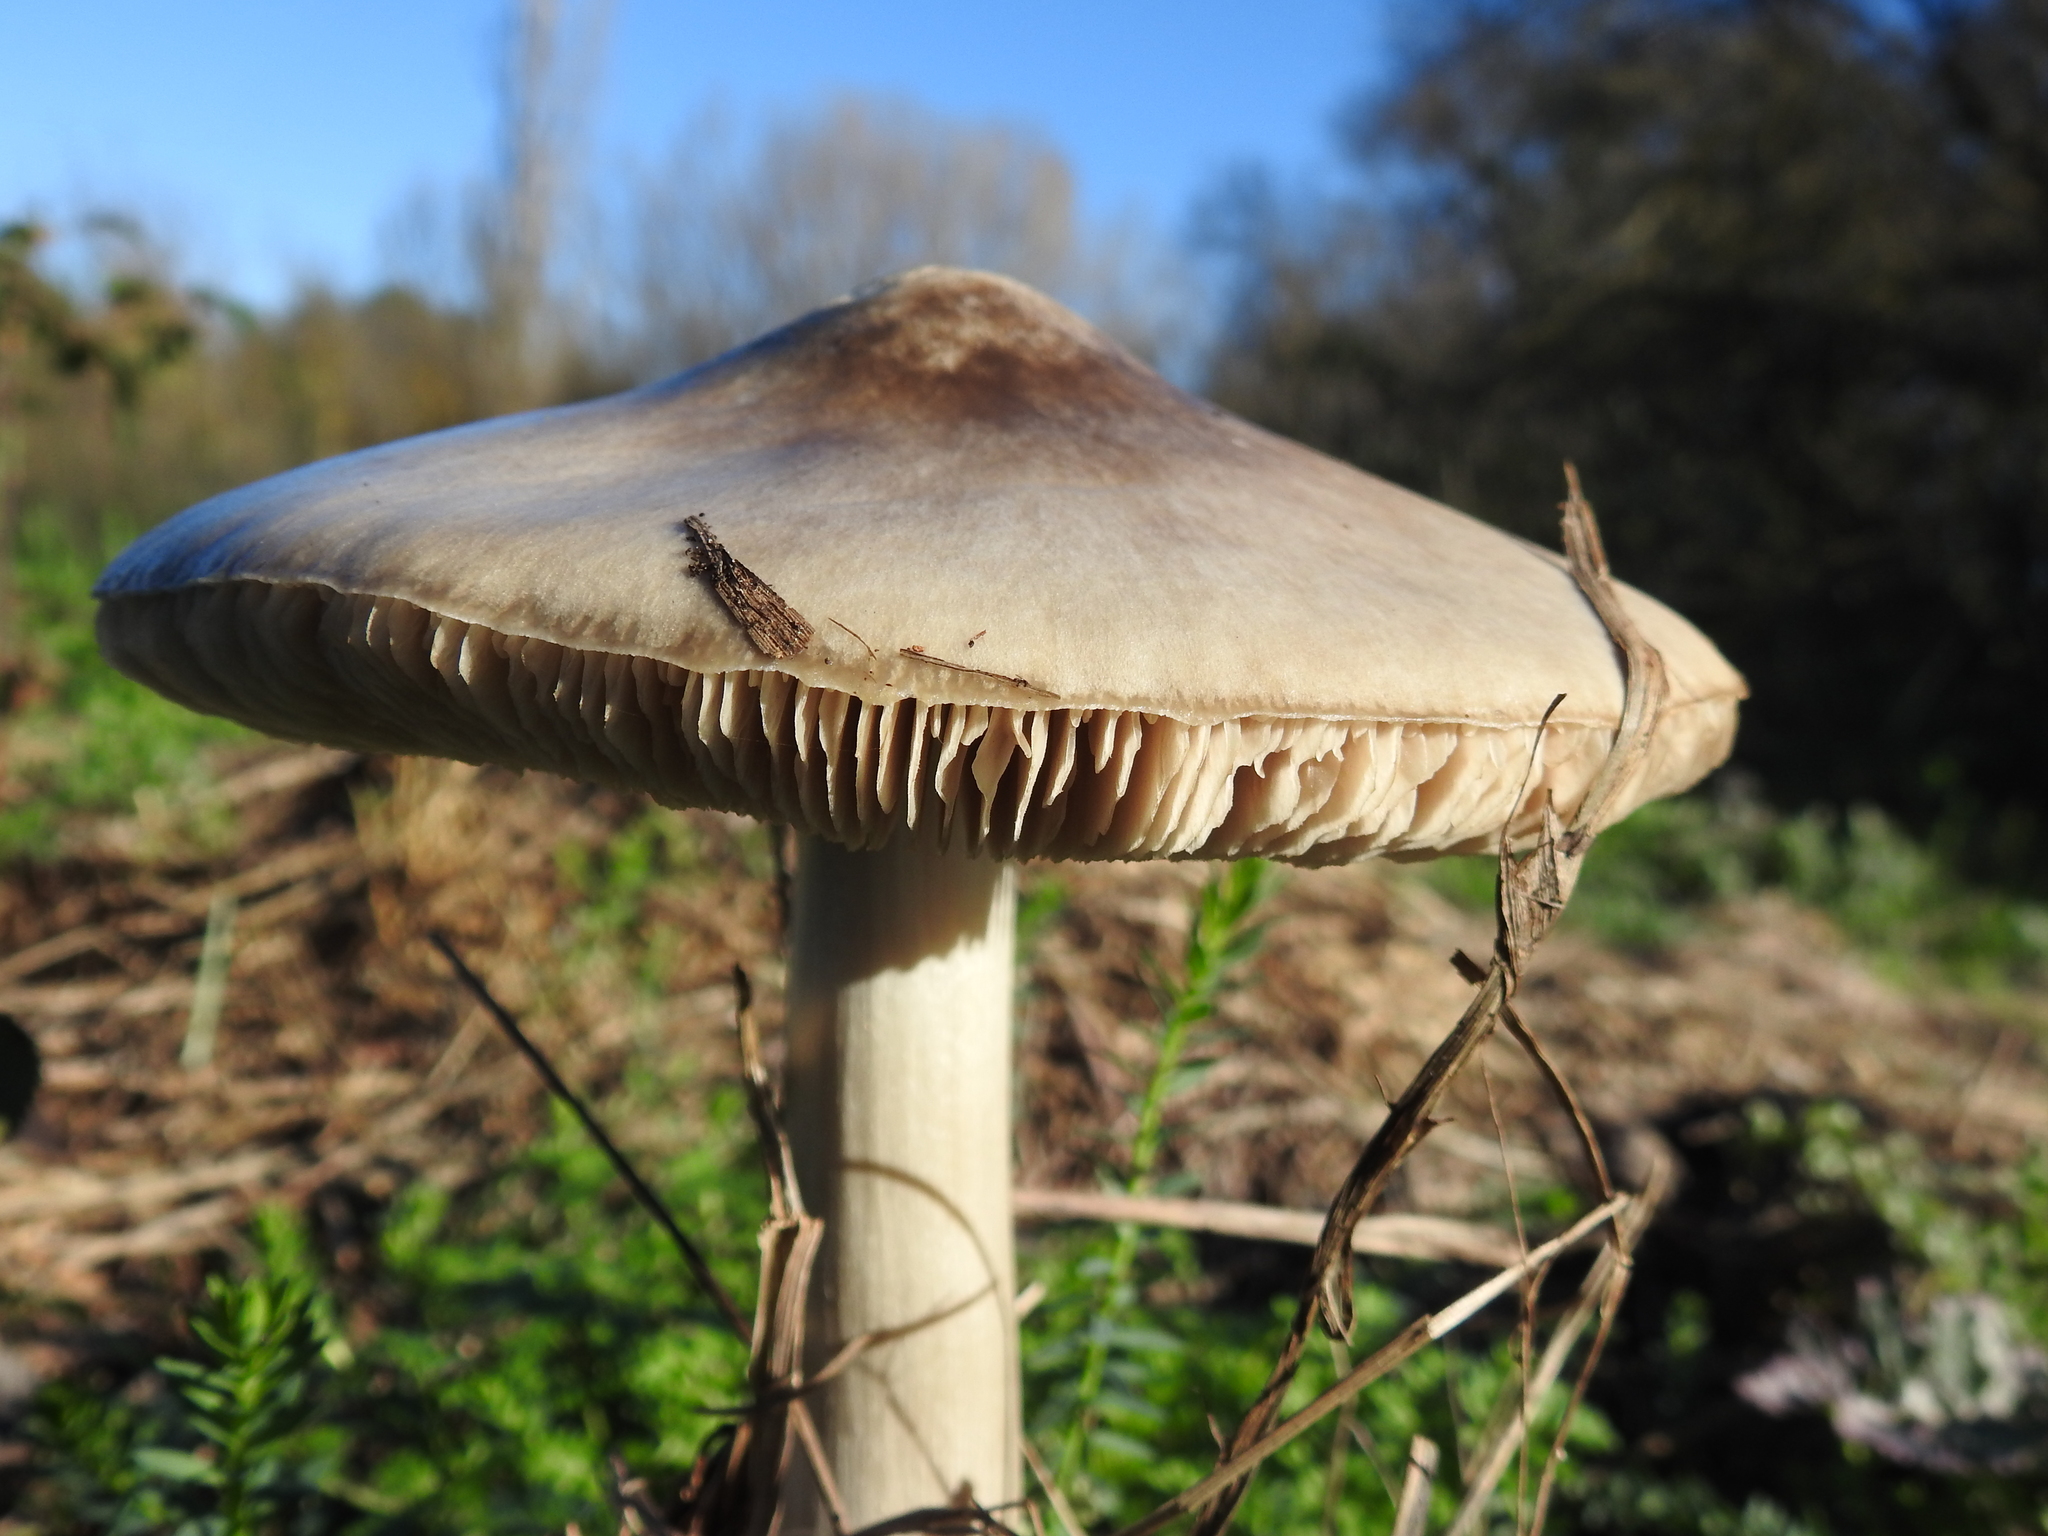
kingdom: Fungi
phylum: Basidiomycota
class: Agaricomycetes
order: Agaricales
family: Pluteaceae
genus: Volvopluteus
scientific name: Volvopluteus gloiocephalus
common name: Stubble rosegill
